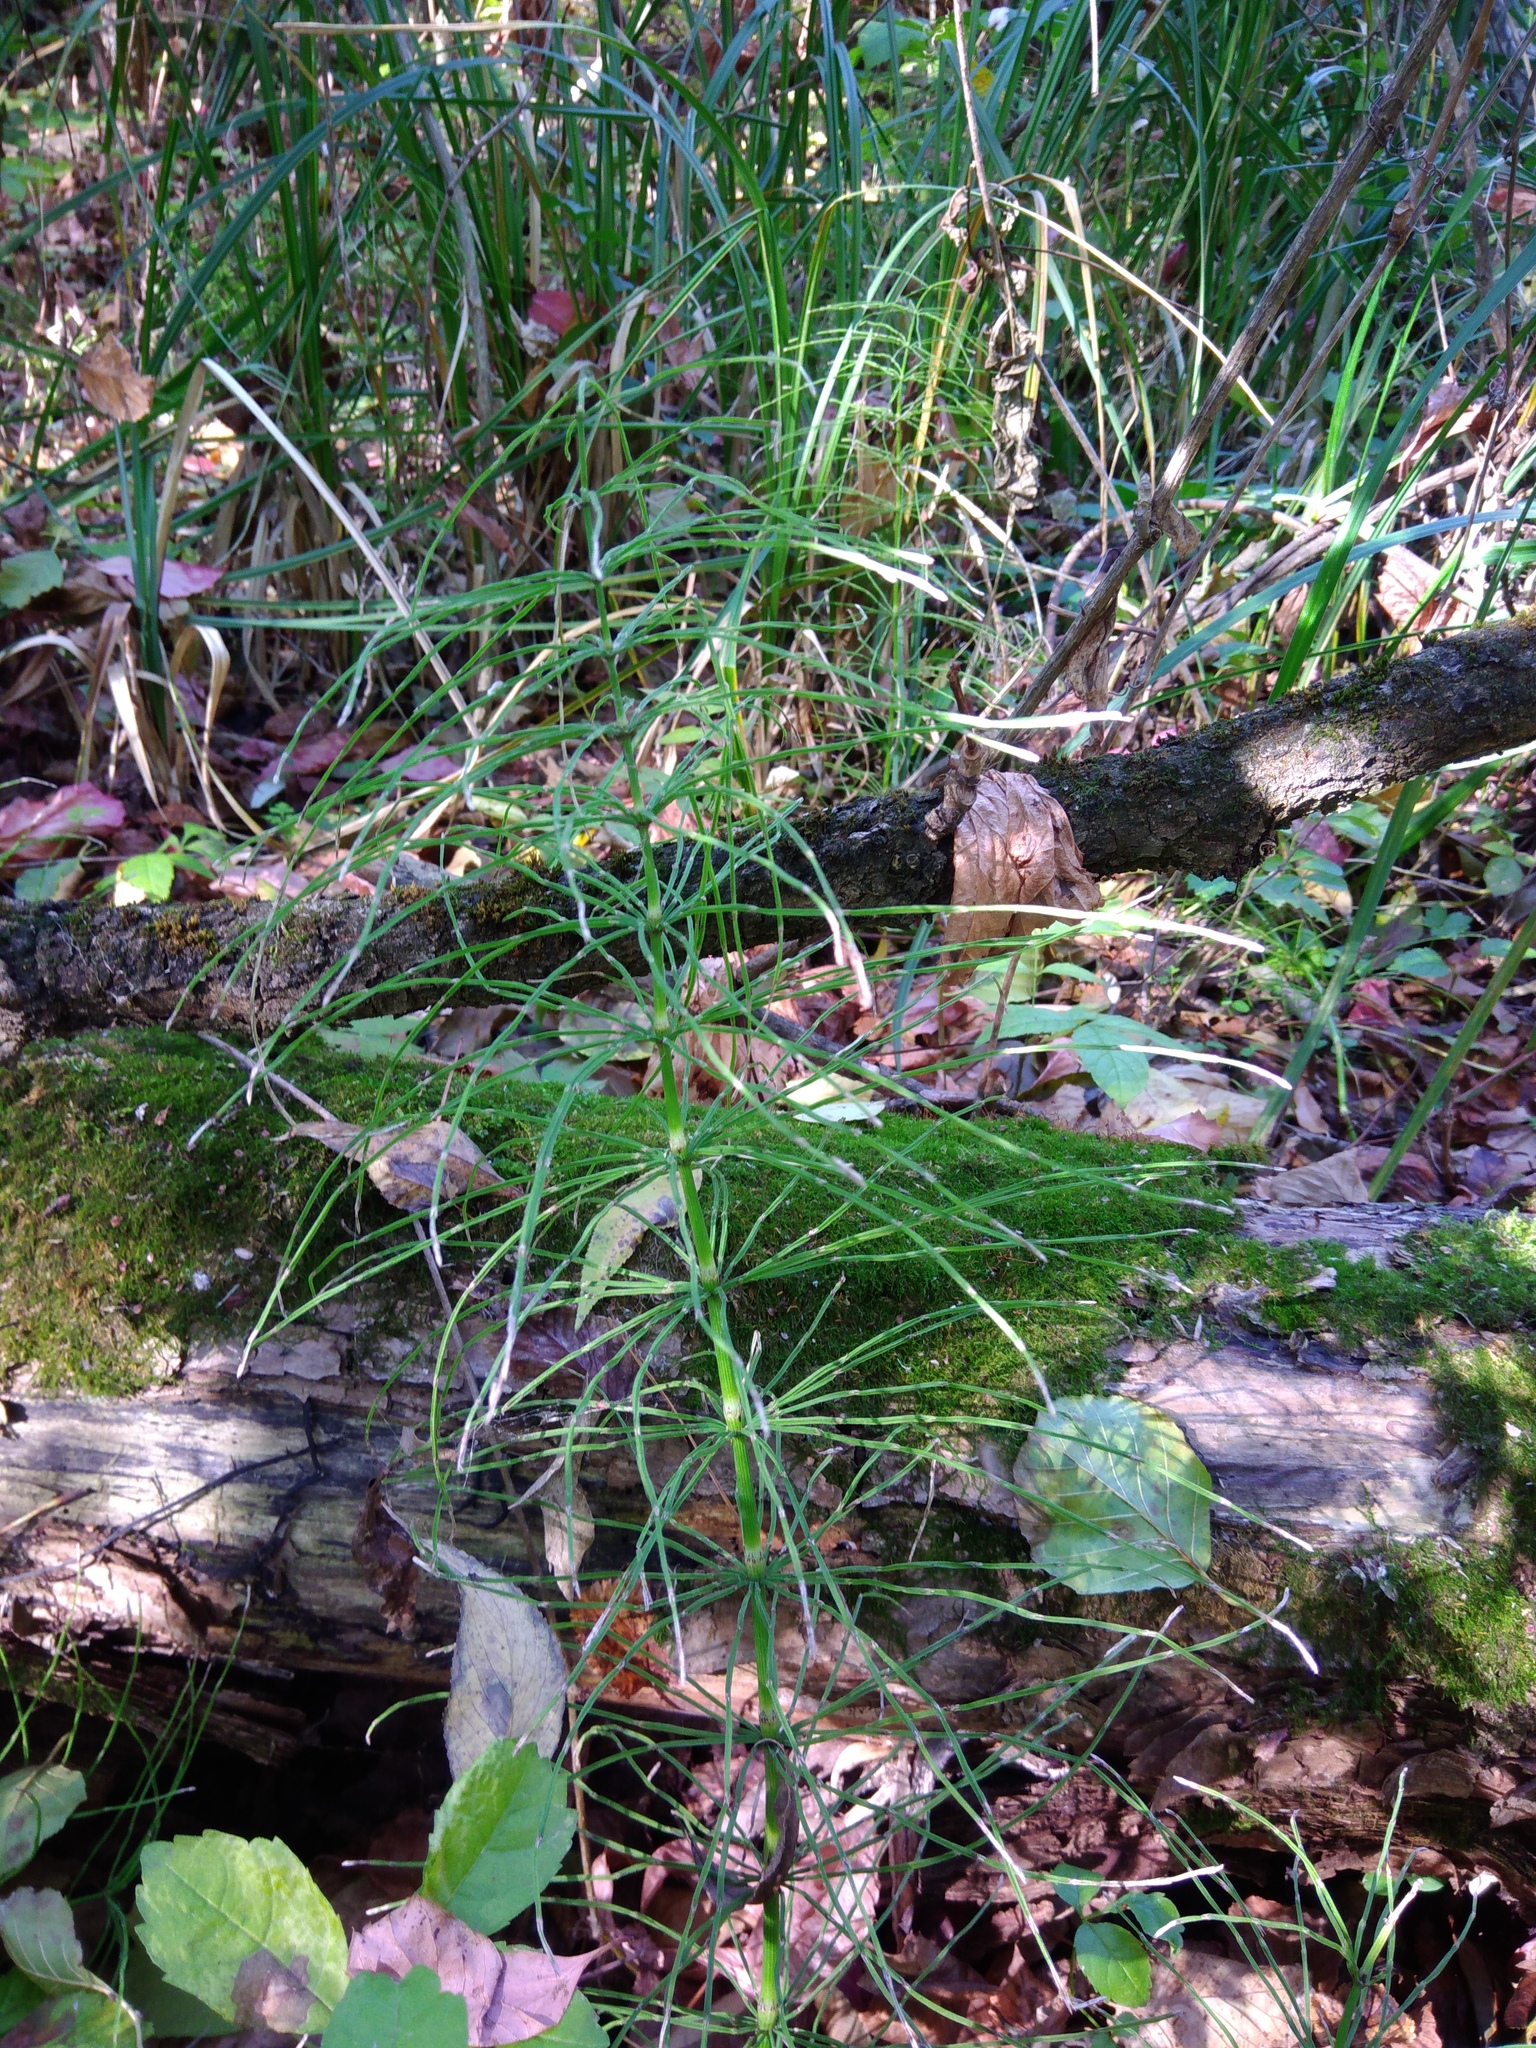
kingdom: Plantae
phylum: Tracheophyta
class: Polypodiopsida
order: Equisetales
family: Equisetaceae
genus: Equisetum
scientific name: Equisetum arvense
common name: Field horsetail
